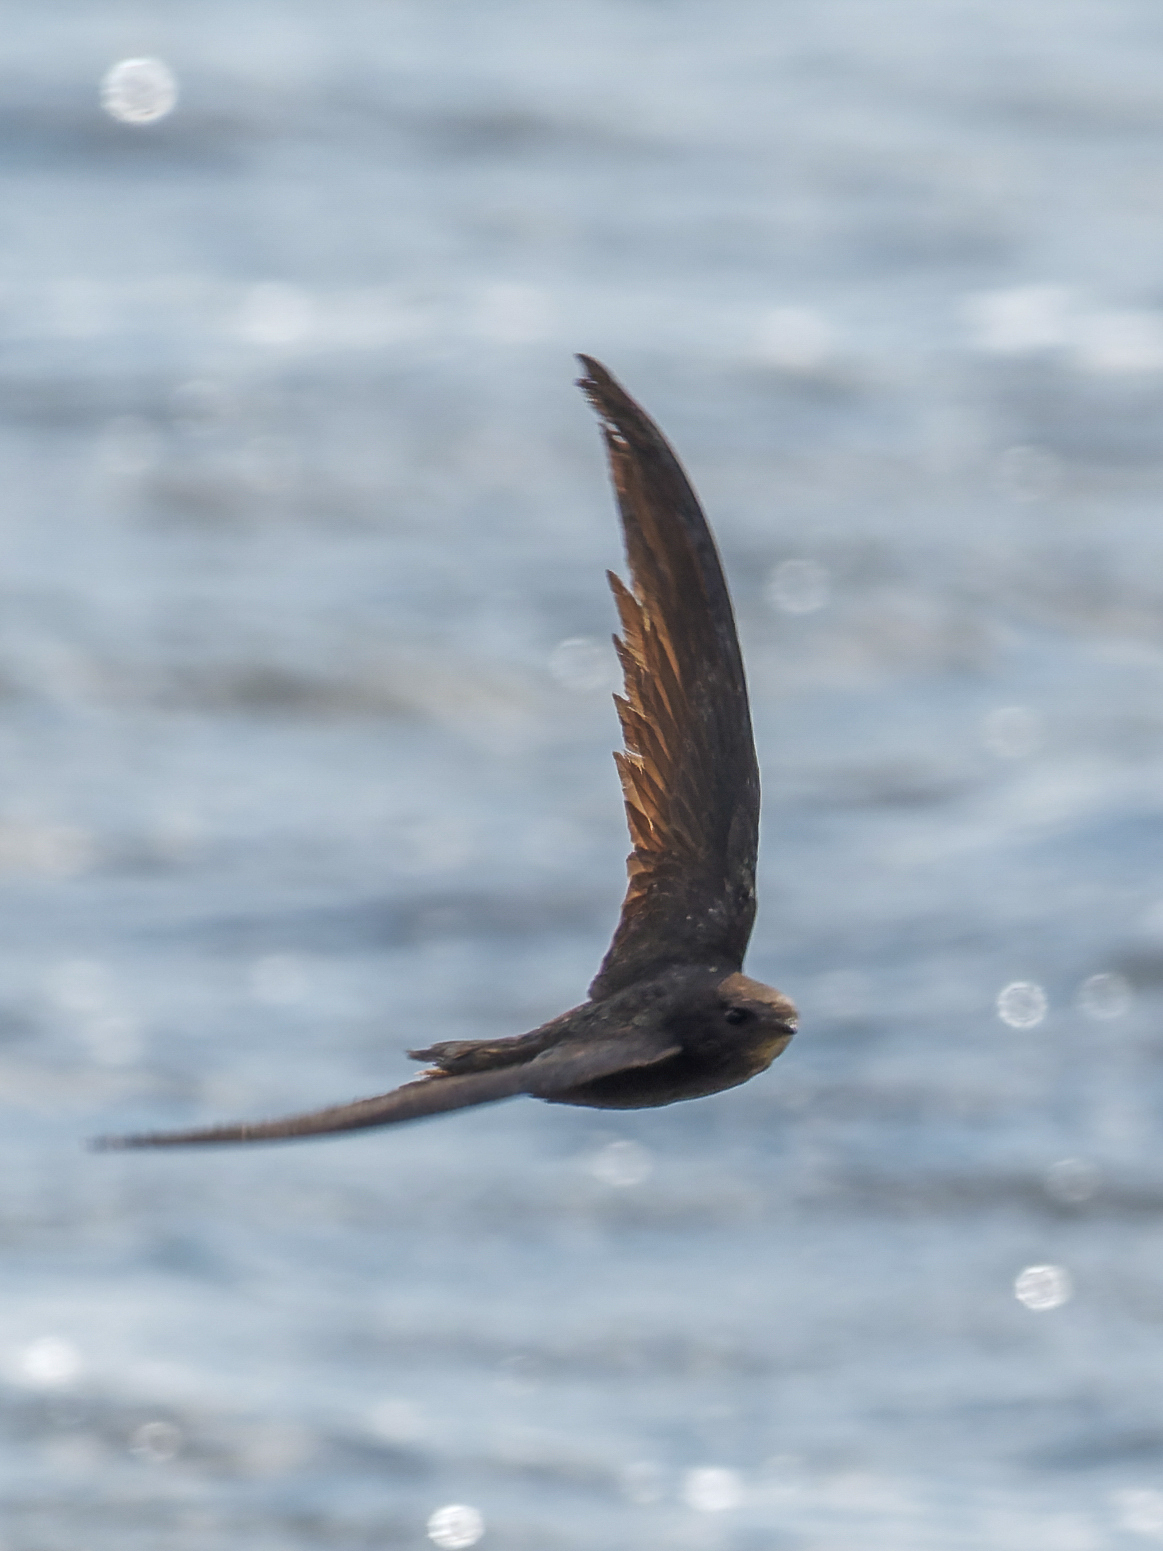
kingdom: Animalia
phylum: Chordata
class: Aves
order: Apodiformes
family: Apodidae
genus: Apus
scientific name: Apus apus
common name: Common swift
